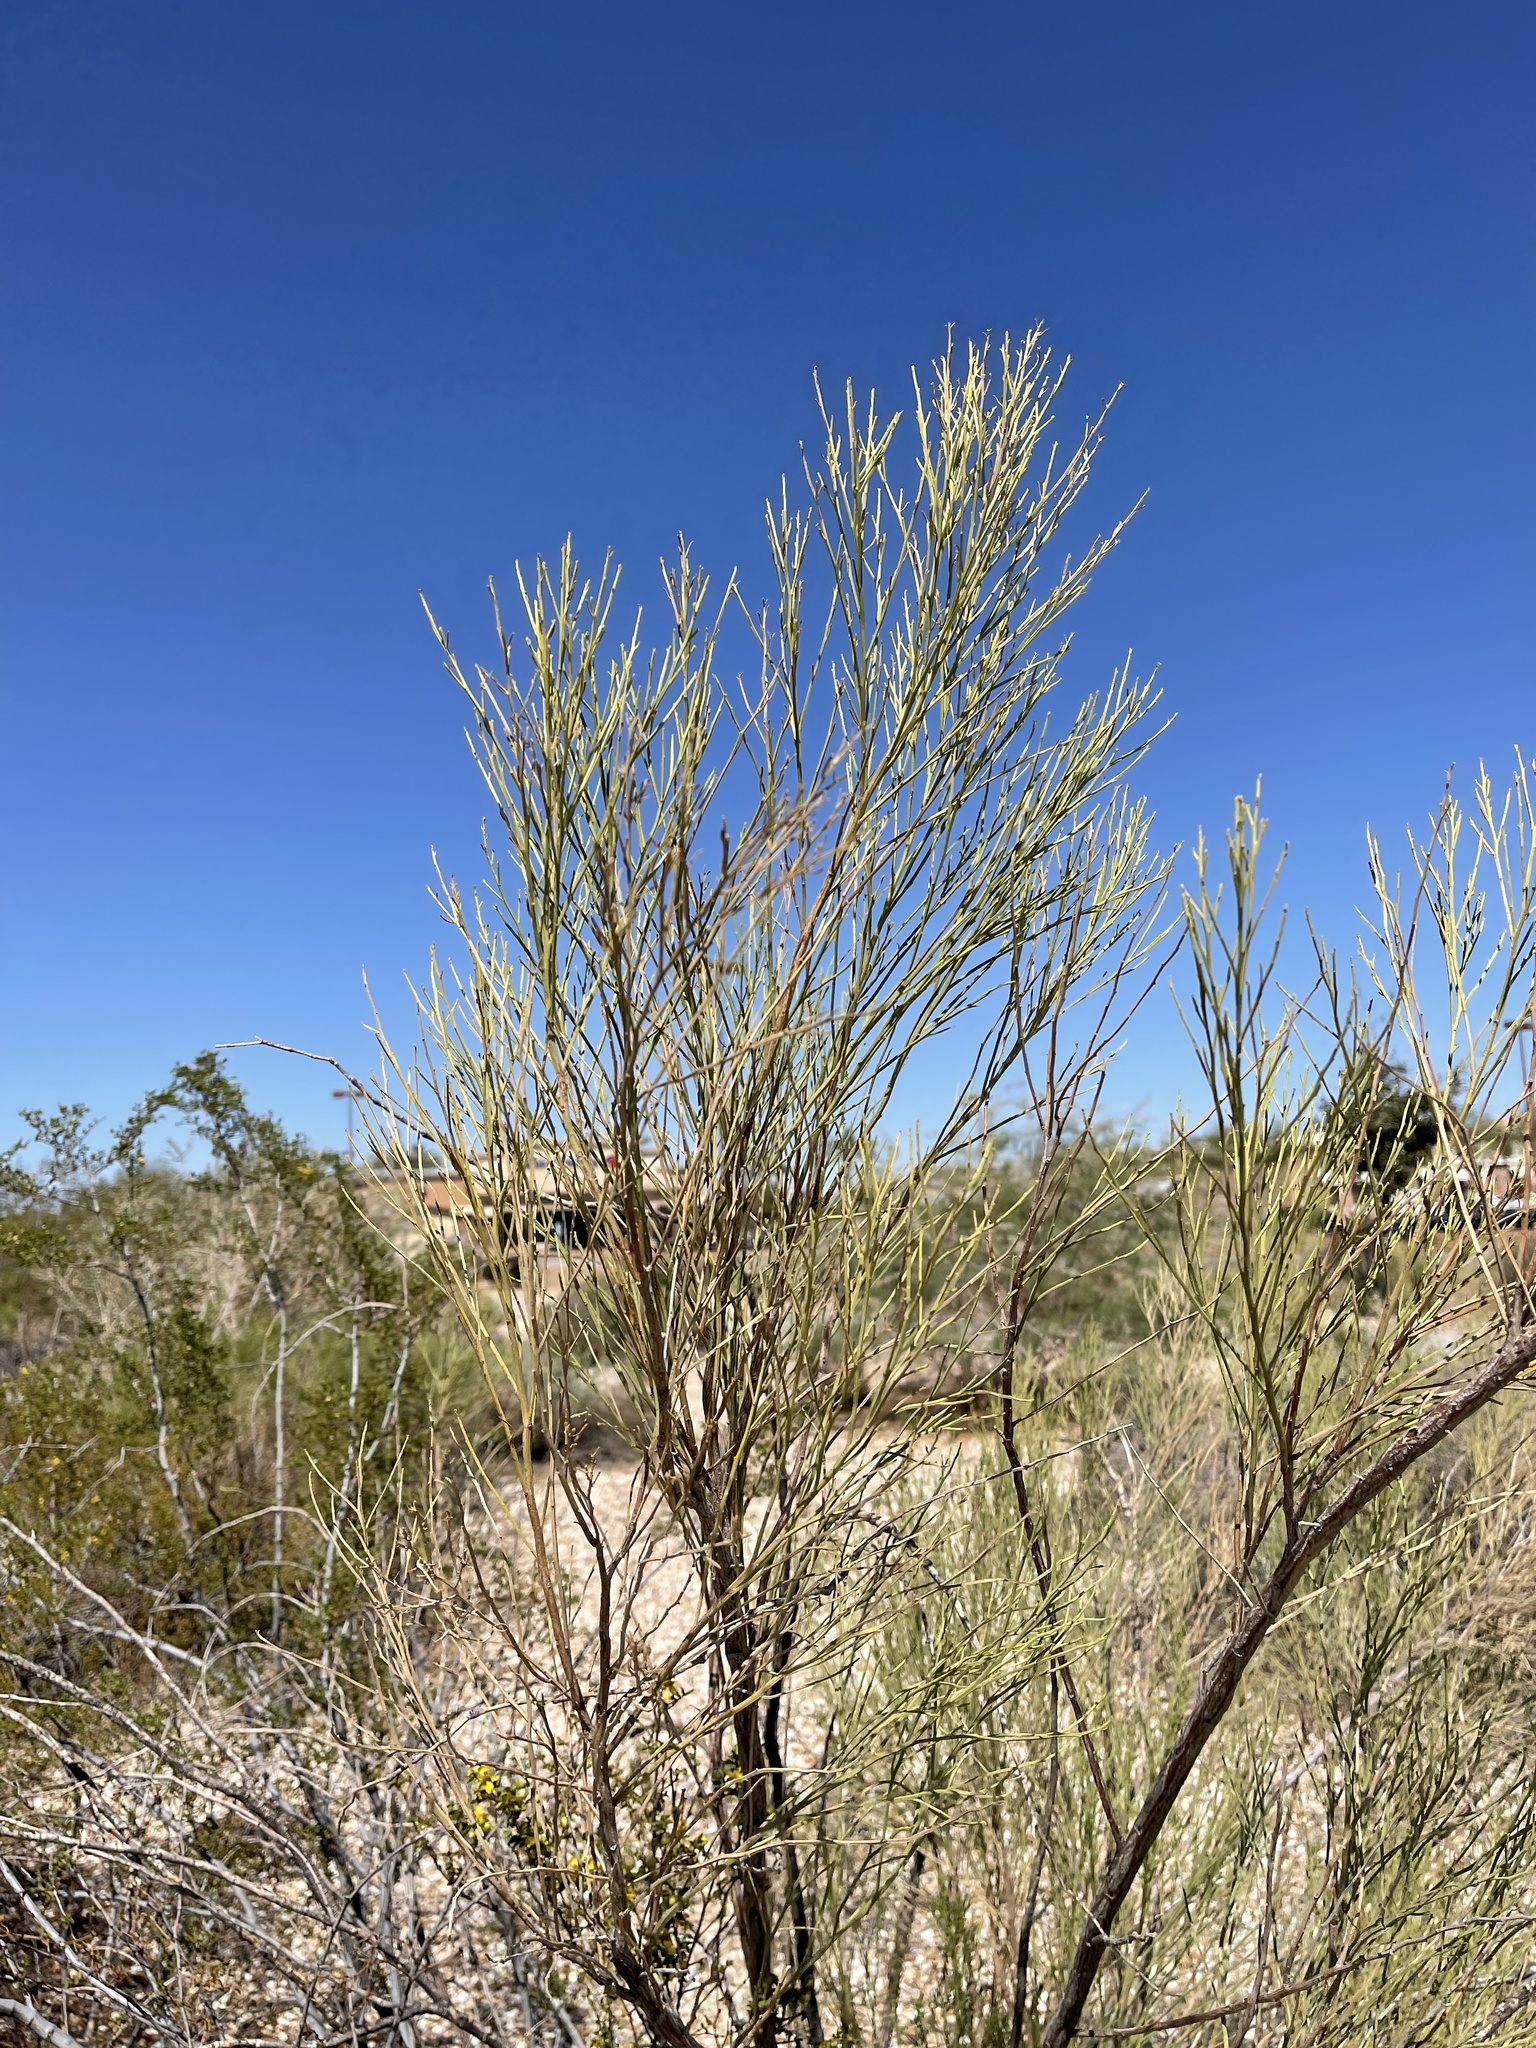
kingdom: Plantae
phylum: Tracheophyta
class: Magnoliopsida
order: Asterales
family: Asteraceae
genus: Baccharis
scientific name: Baccharis sarothroides
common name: Desert-broom
